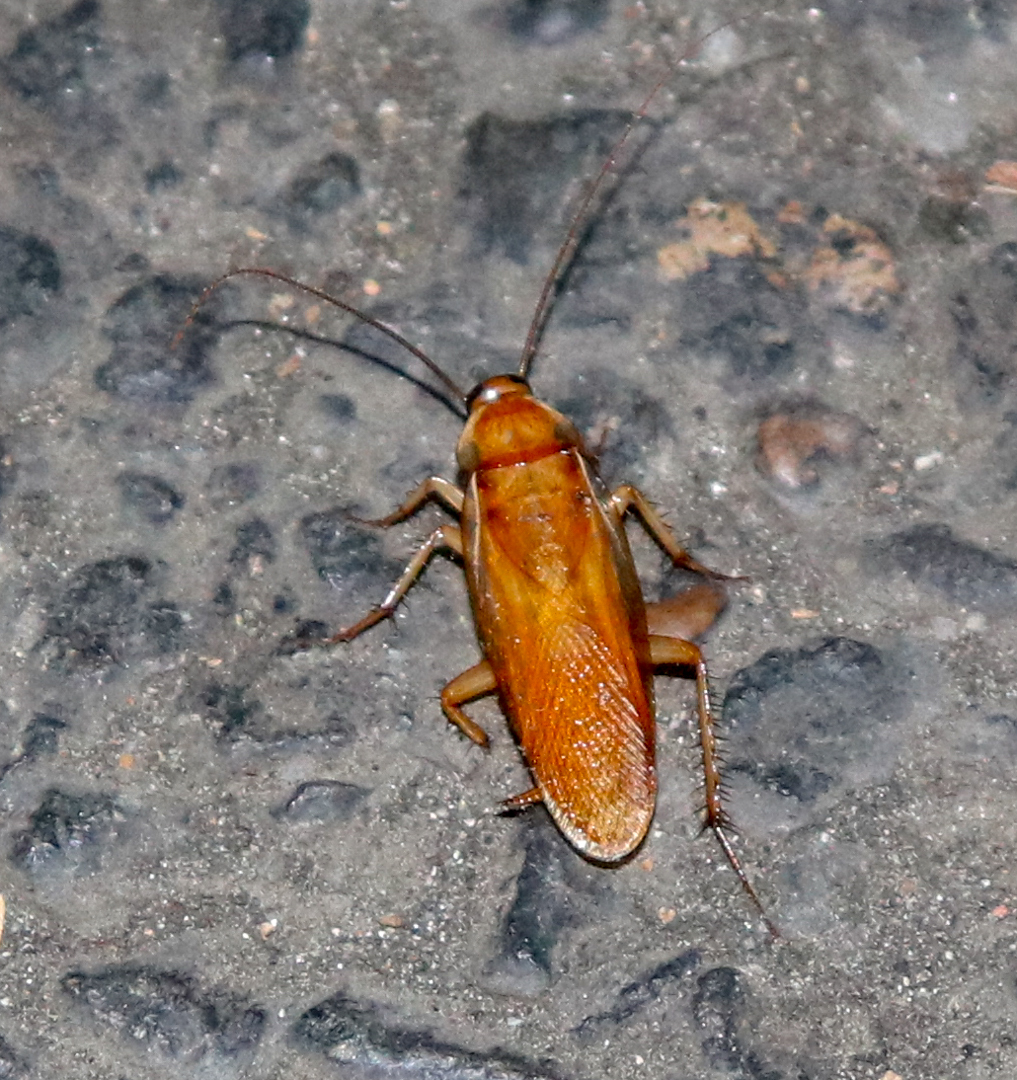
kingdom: Animalia
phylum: Arthropoda
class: Insecta
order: Blattodea
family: Blattidae
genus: Periplaneta
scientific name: Periplaneta lateralis
